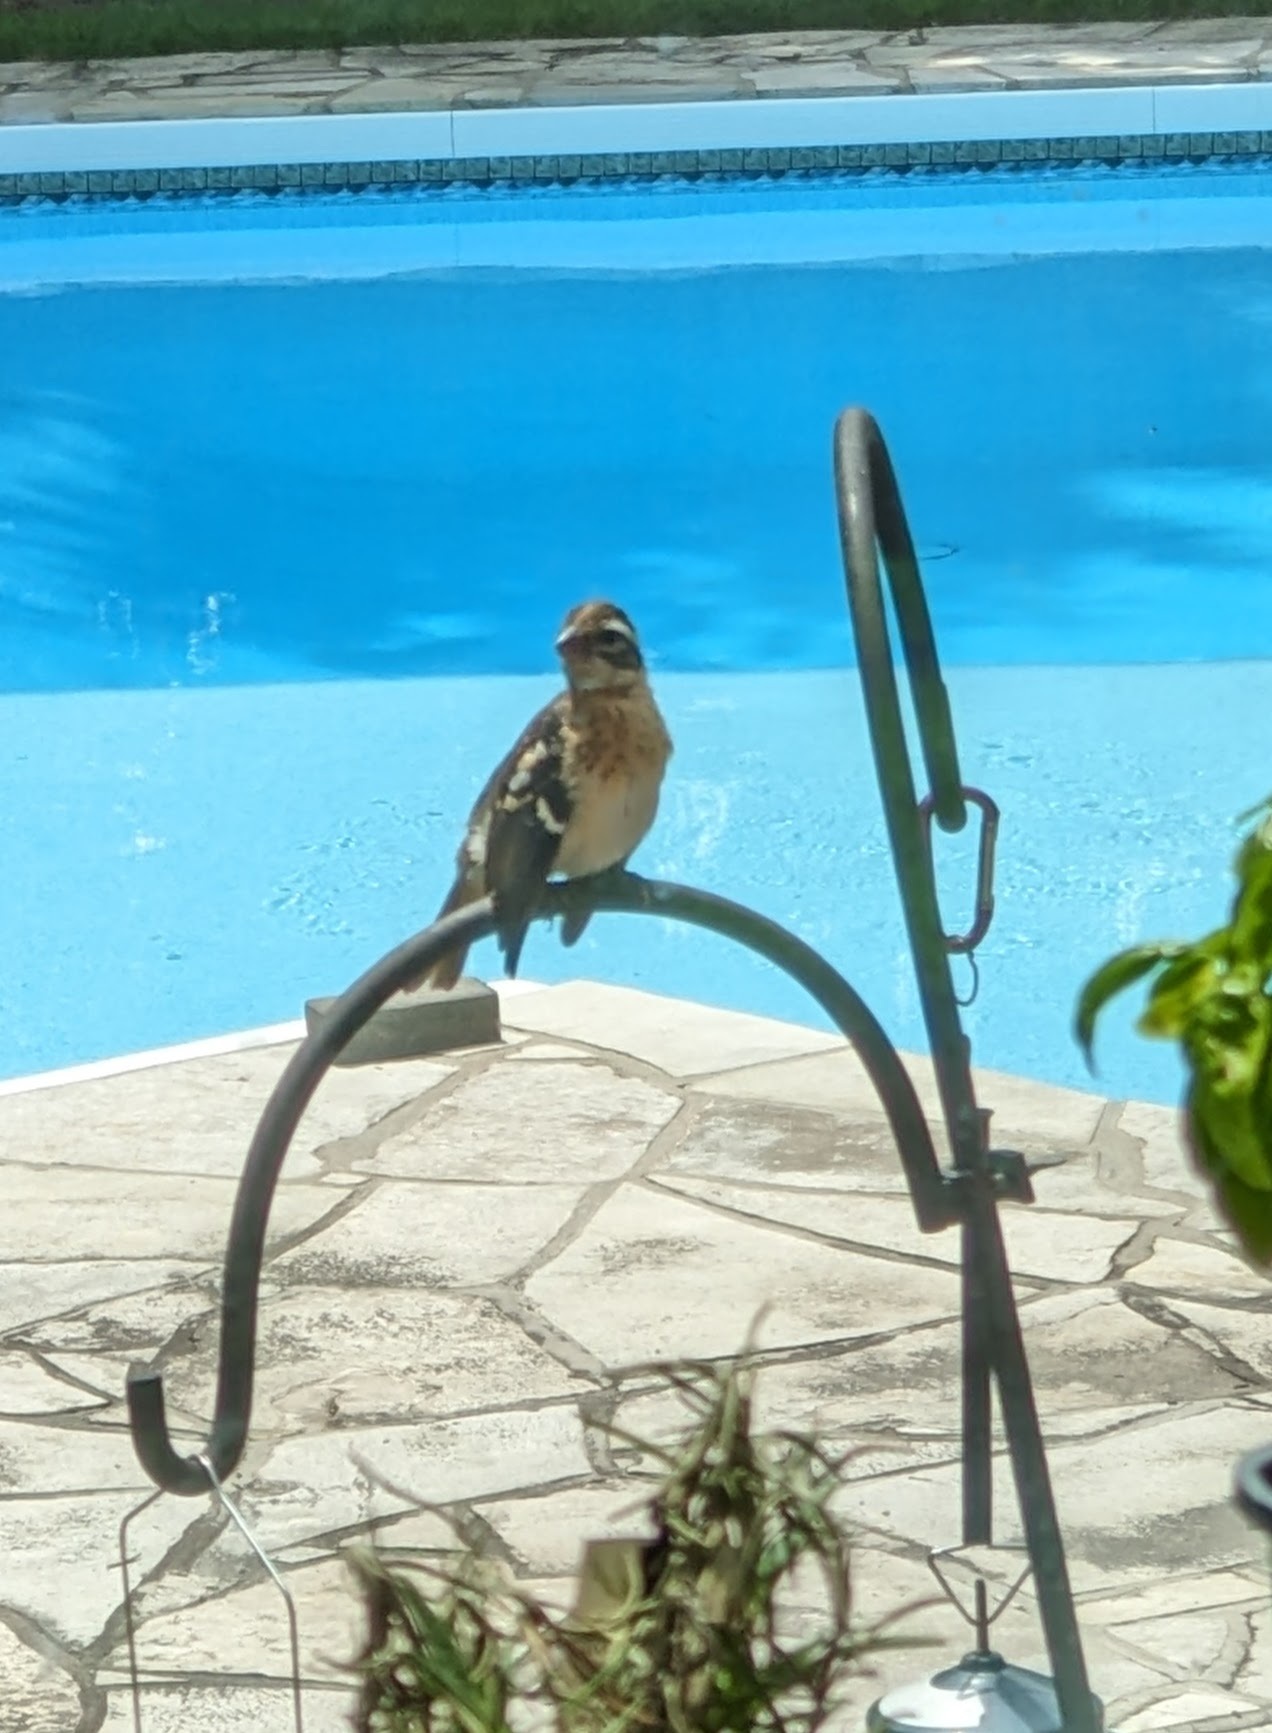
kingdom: Animalia
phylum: Chordata
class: Aves
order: Passeriformes
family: Cardinalidae
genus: Pheucticus
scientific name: Pheucticus ludovicianus
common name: Rose-breasted grosbeak
